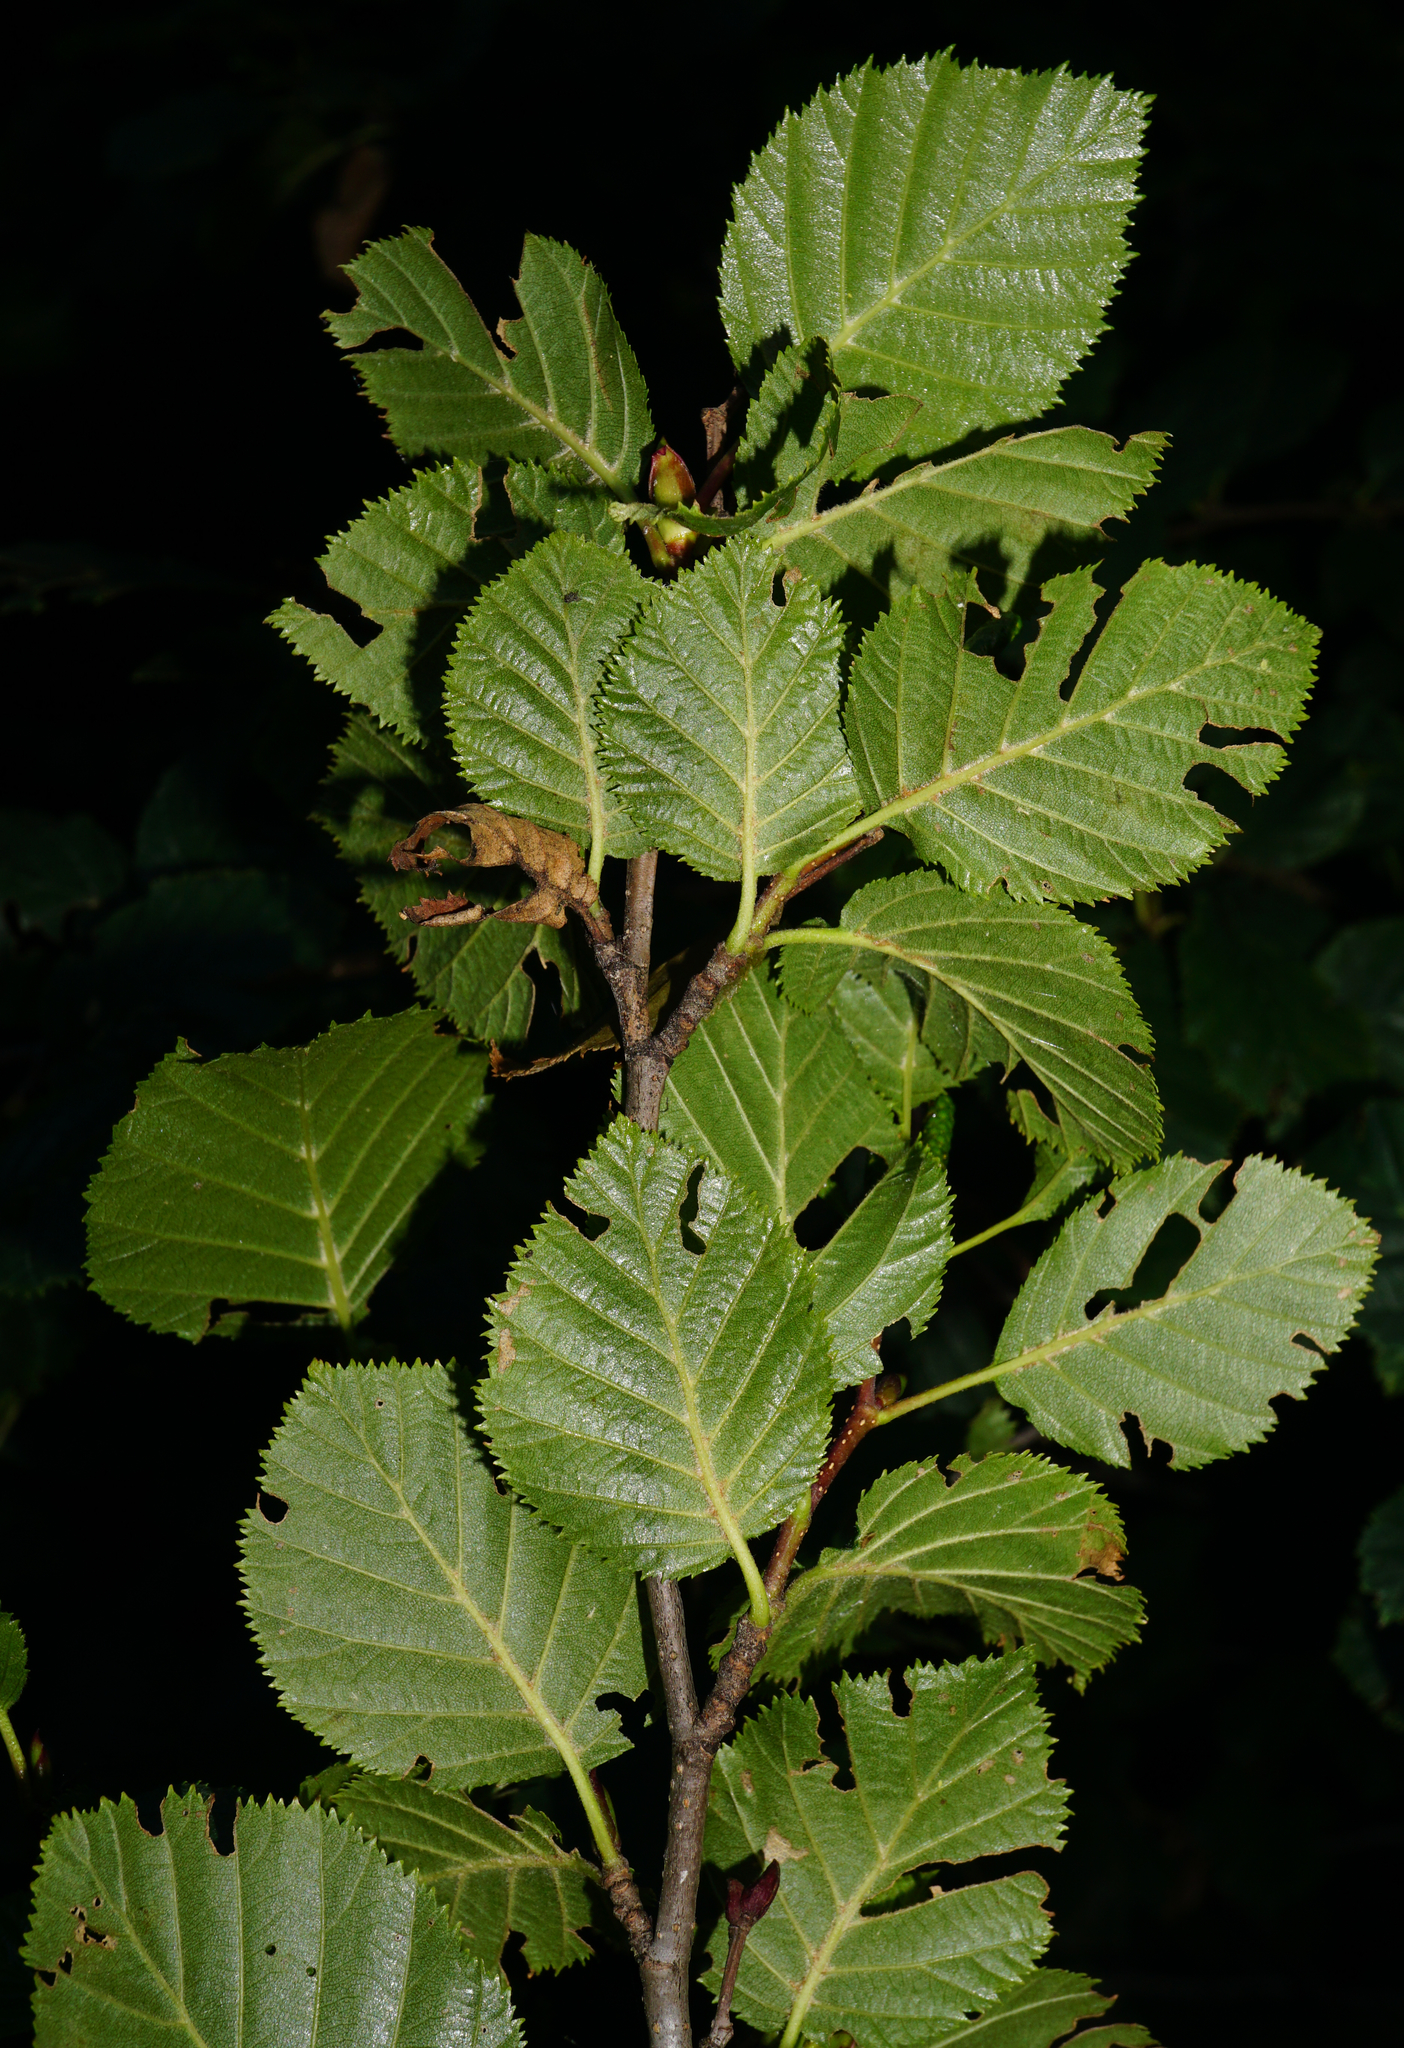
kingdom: Plantae
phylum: Tracheophyta
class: Magnoliopsida
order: Fagales
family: Betulaceae
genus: Alnus
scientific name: Alnus alnobetula
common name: Green alder
